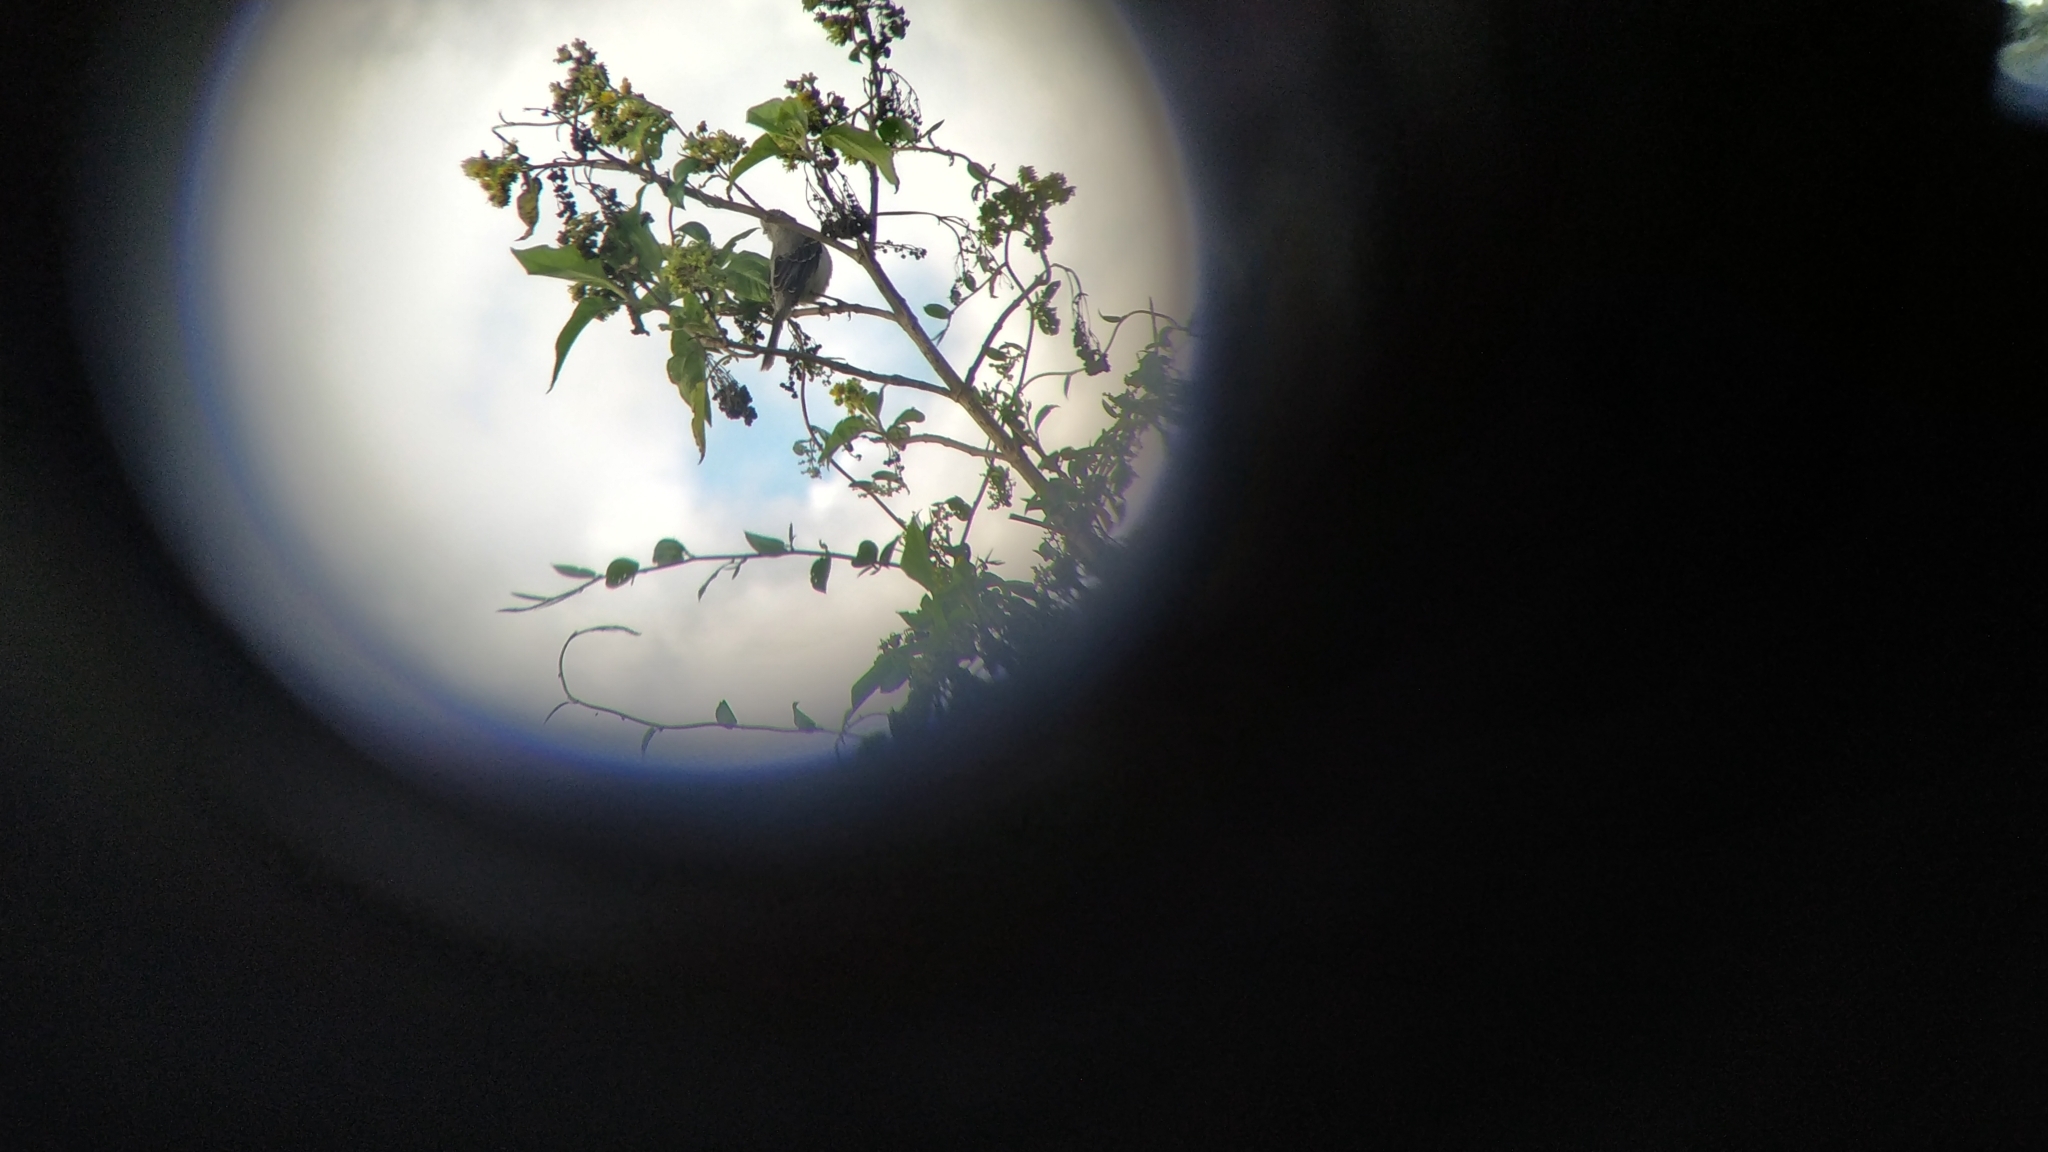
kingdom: Animalia
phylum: Chordata
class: Aves
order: Passeriformes
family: Mimidae
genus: Mimus
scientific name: Mimus gilvus
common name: Tropical mockingbird
